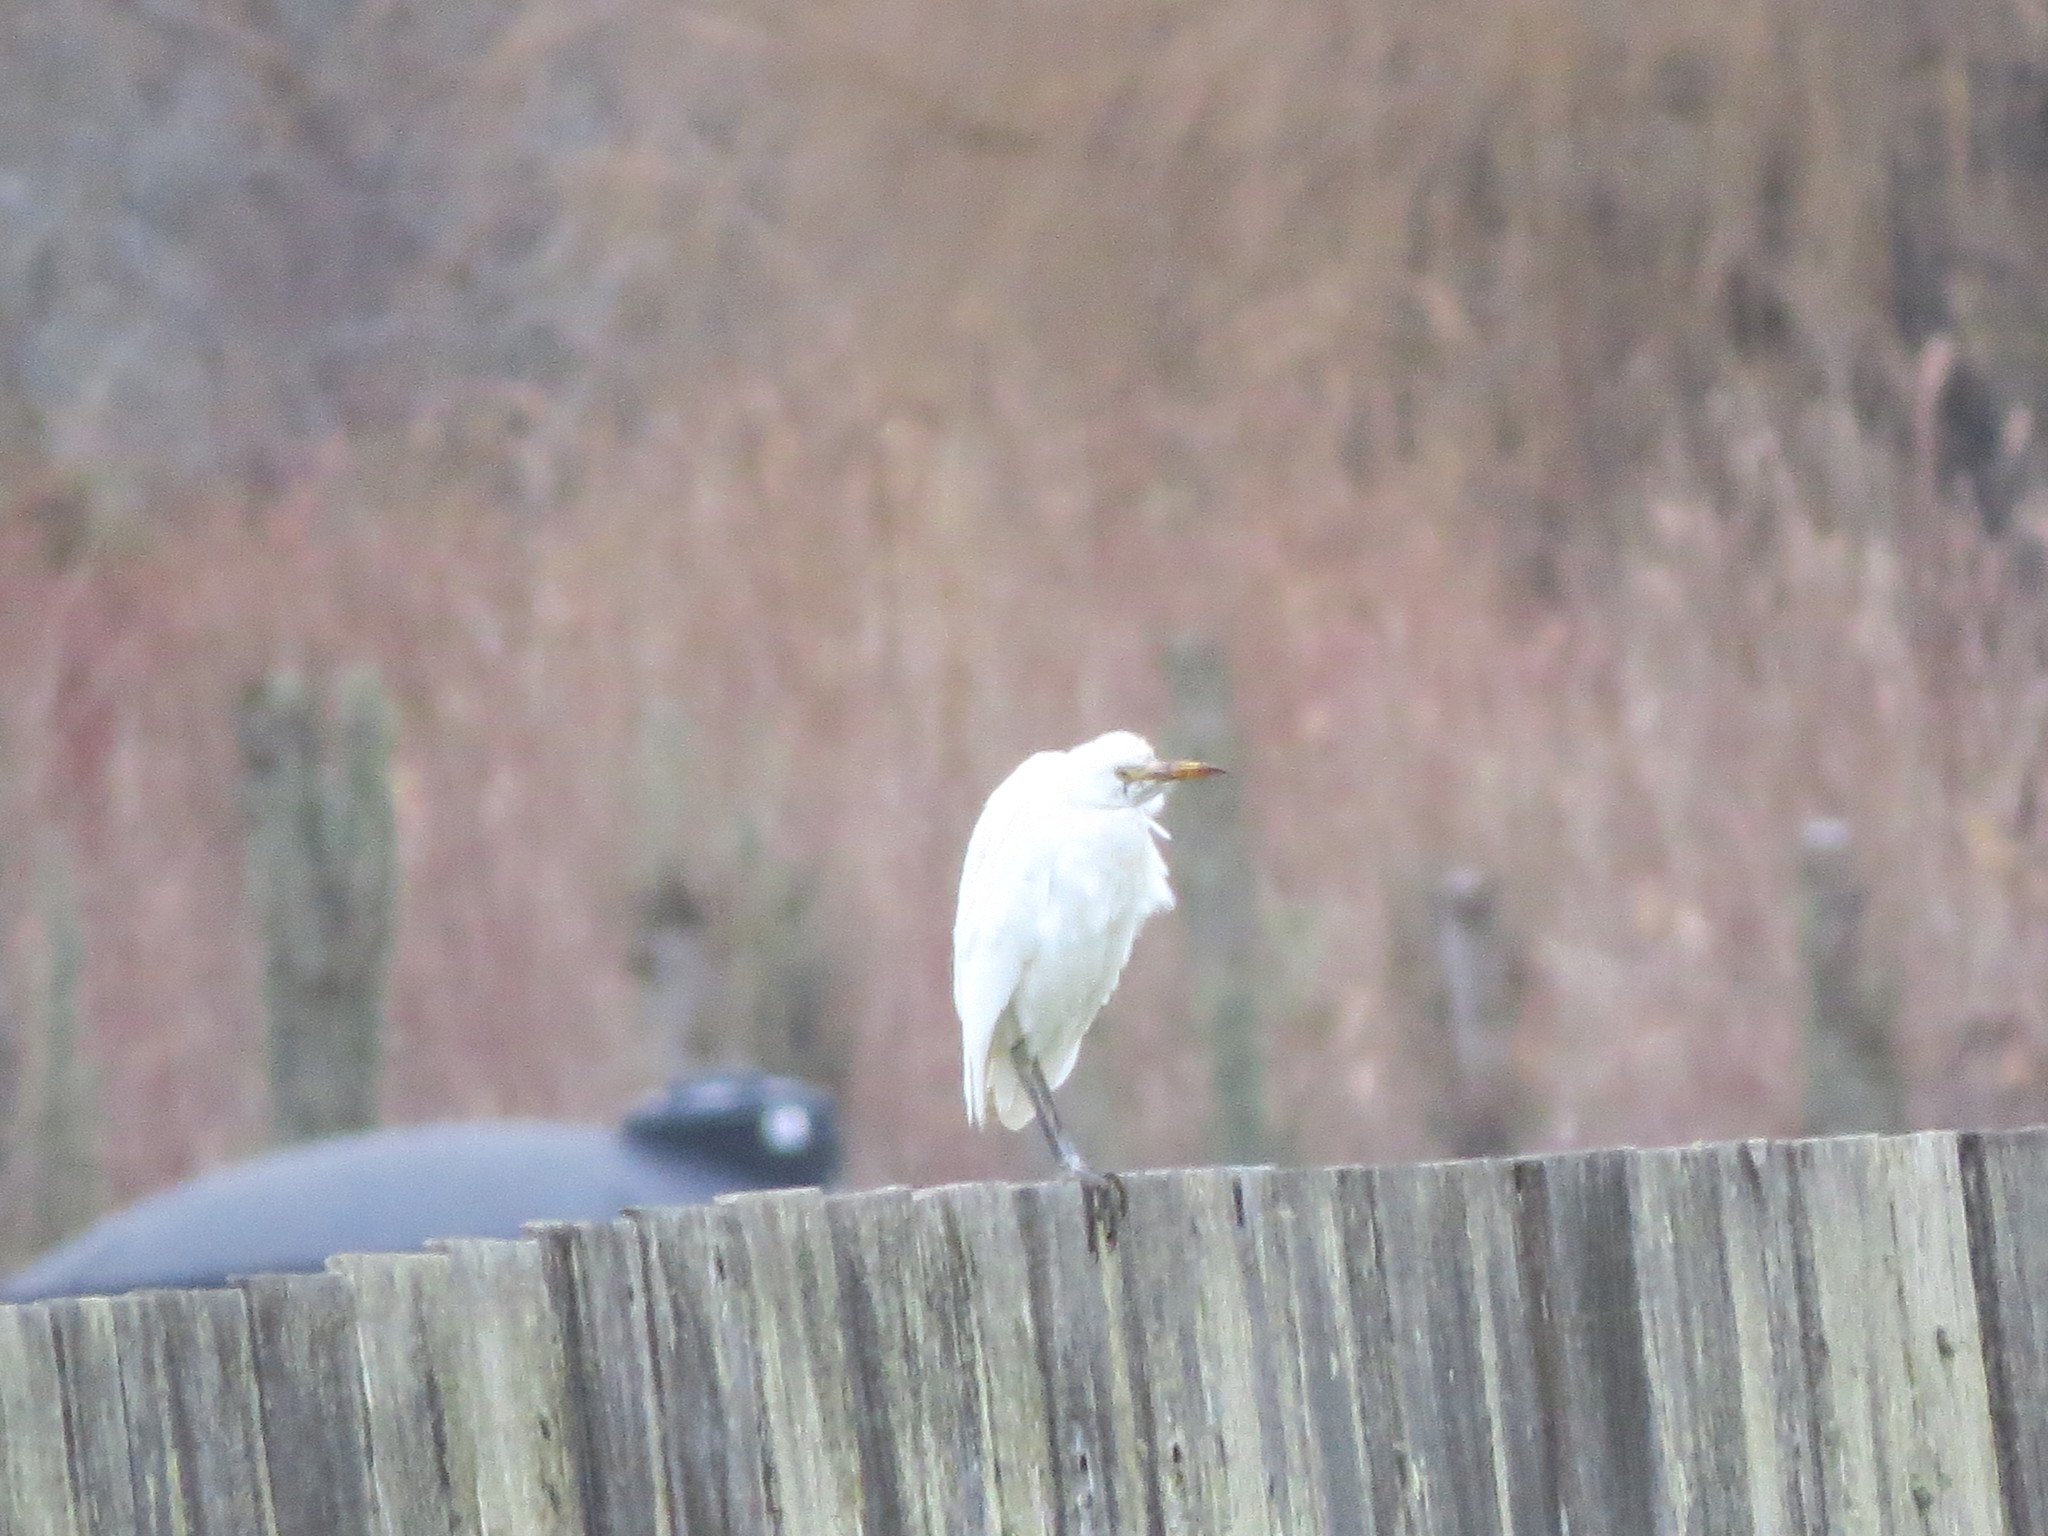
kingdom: Animalia
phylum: Chordata
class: Aves
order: Pelecaniformes
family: Ardeidae
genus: Bubulcus
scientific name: Bubulcus ibis
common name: Cattle egret
